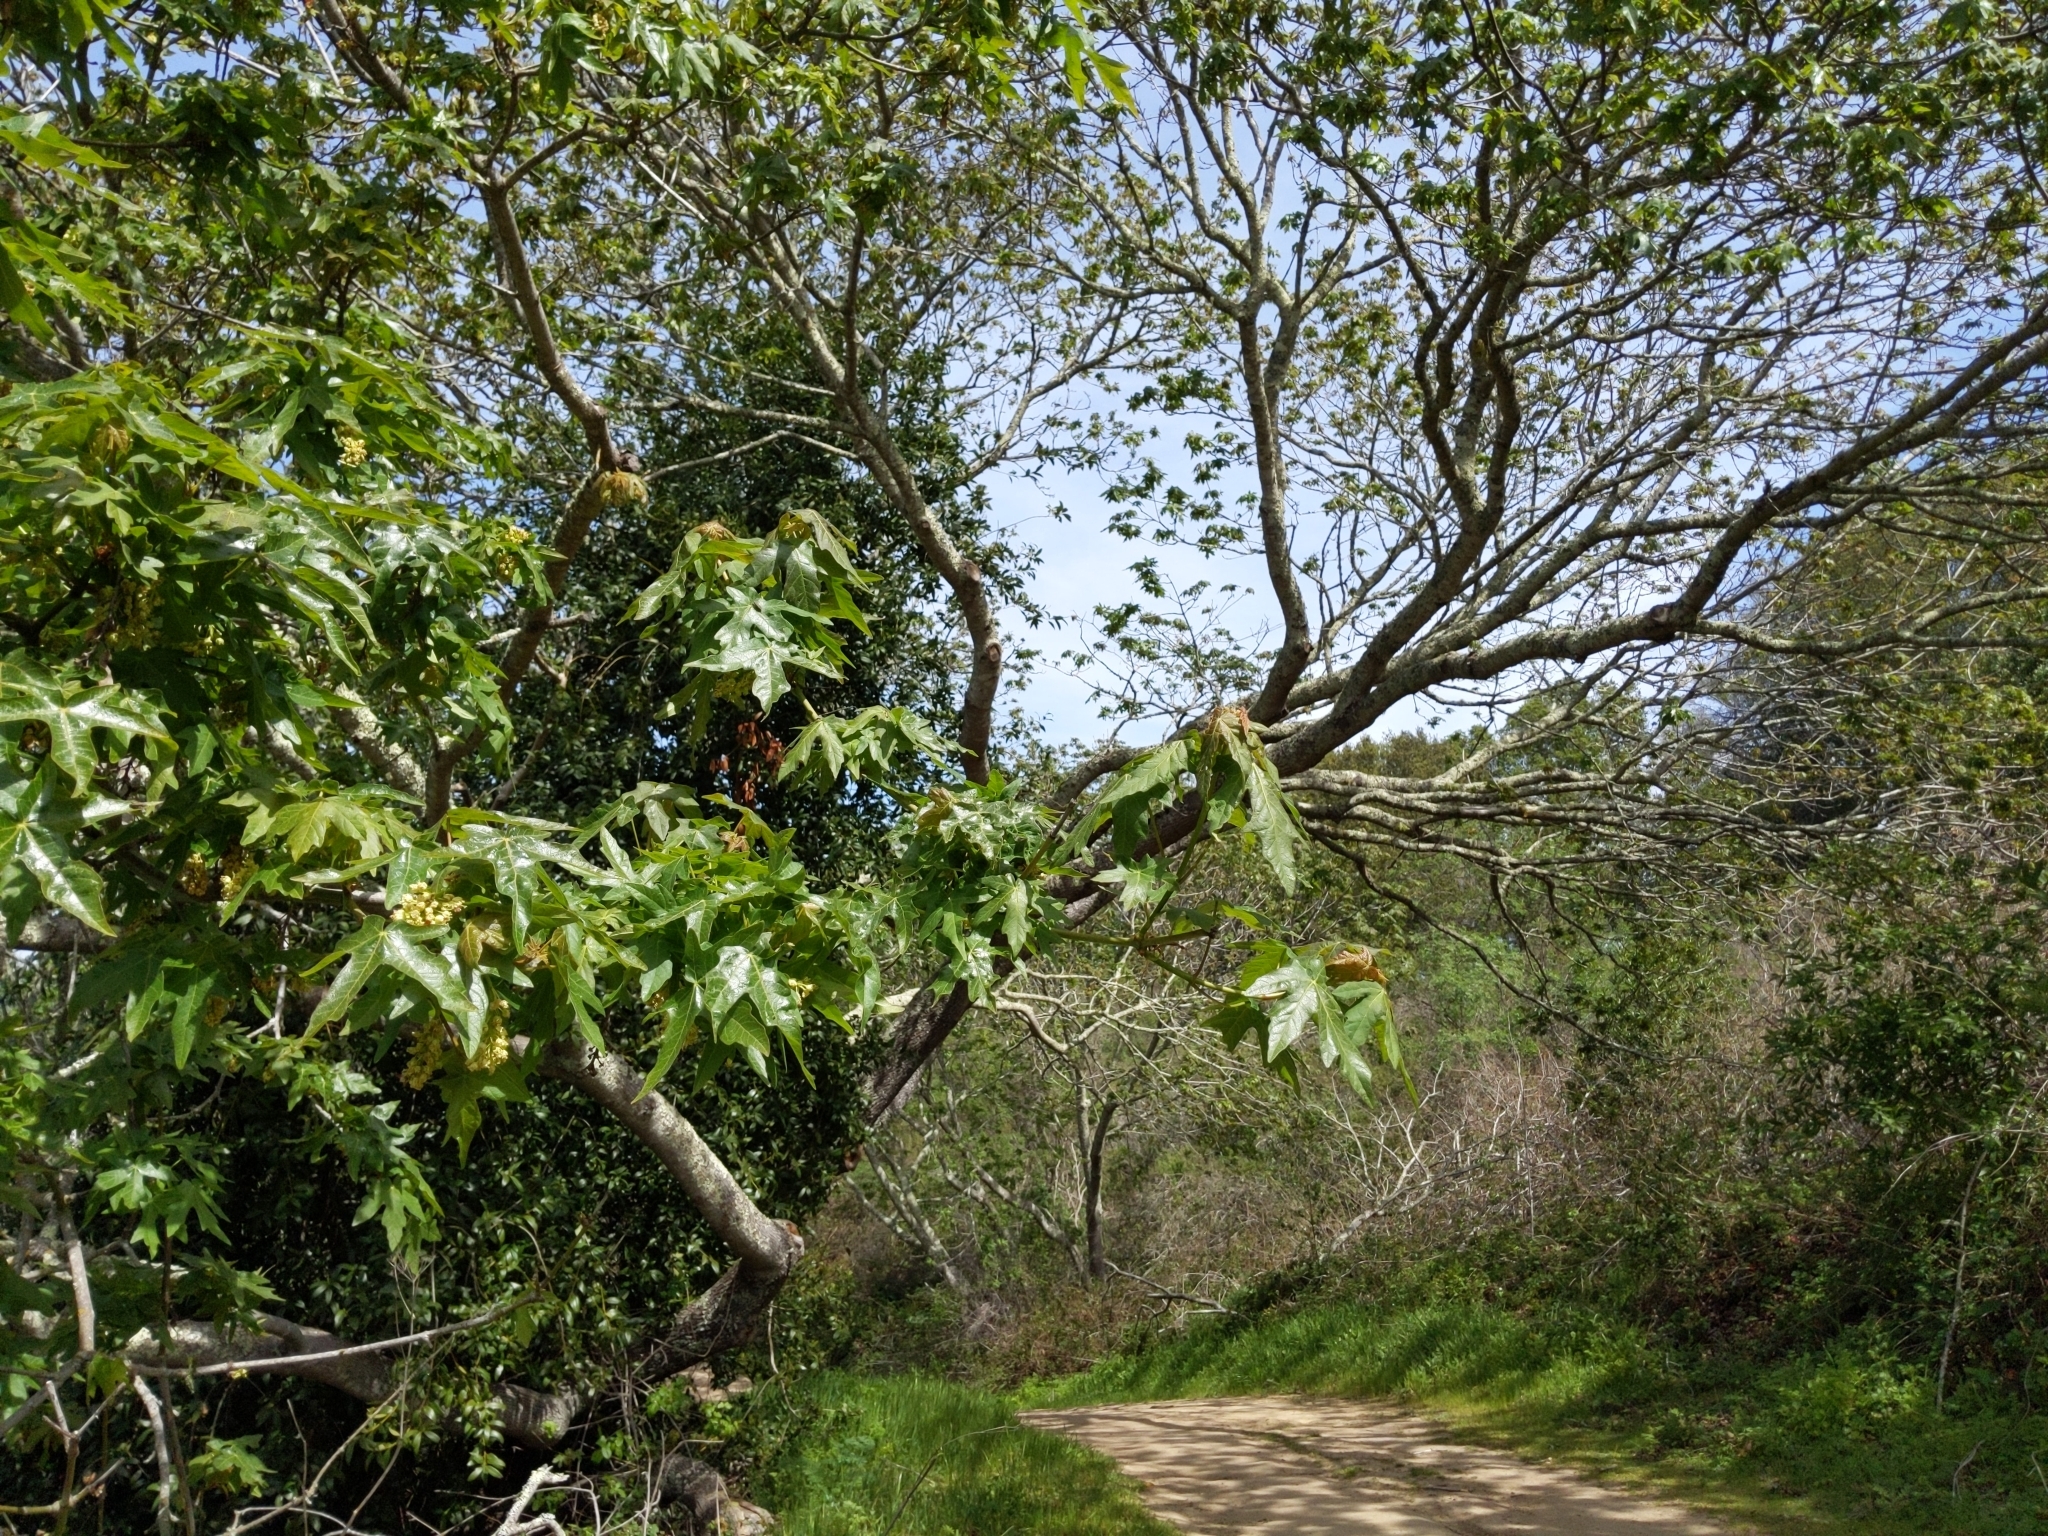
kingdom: Plantae
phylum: Tracheophyta
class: Magnoliopsida
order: Sapindales
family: Sapindaceae
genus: Acer
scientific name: Acer macrophyllum
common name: Oregon maple
